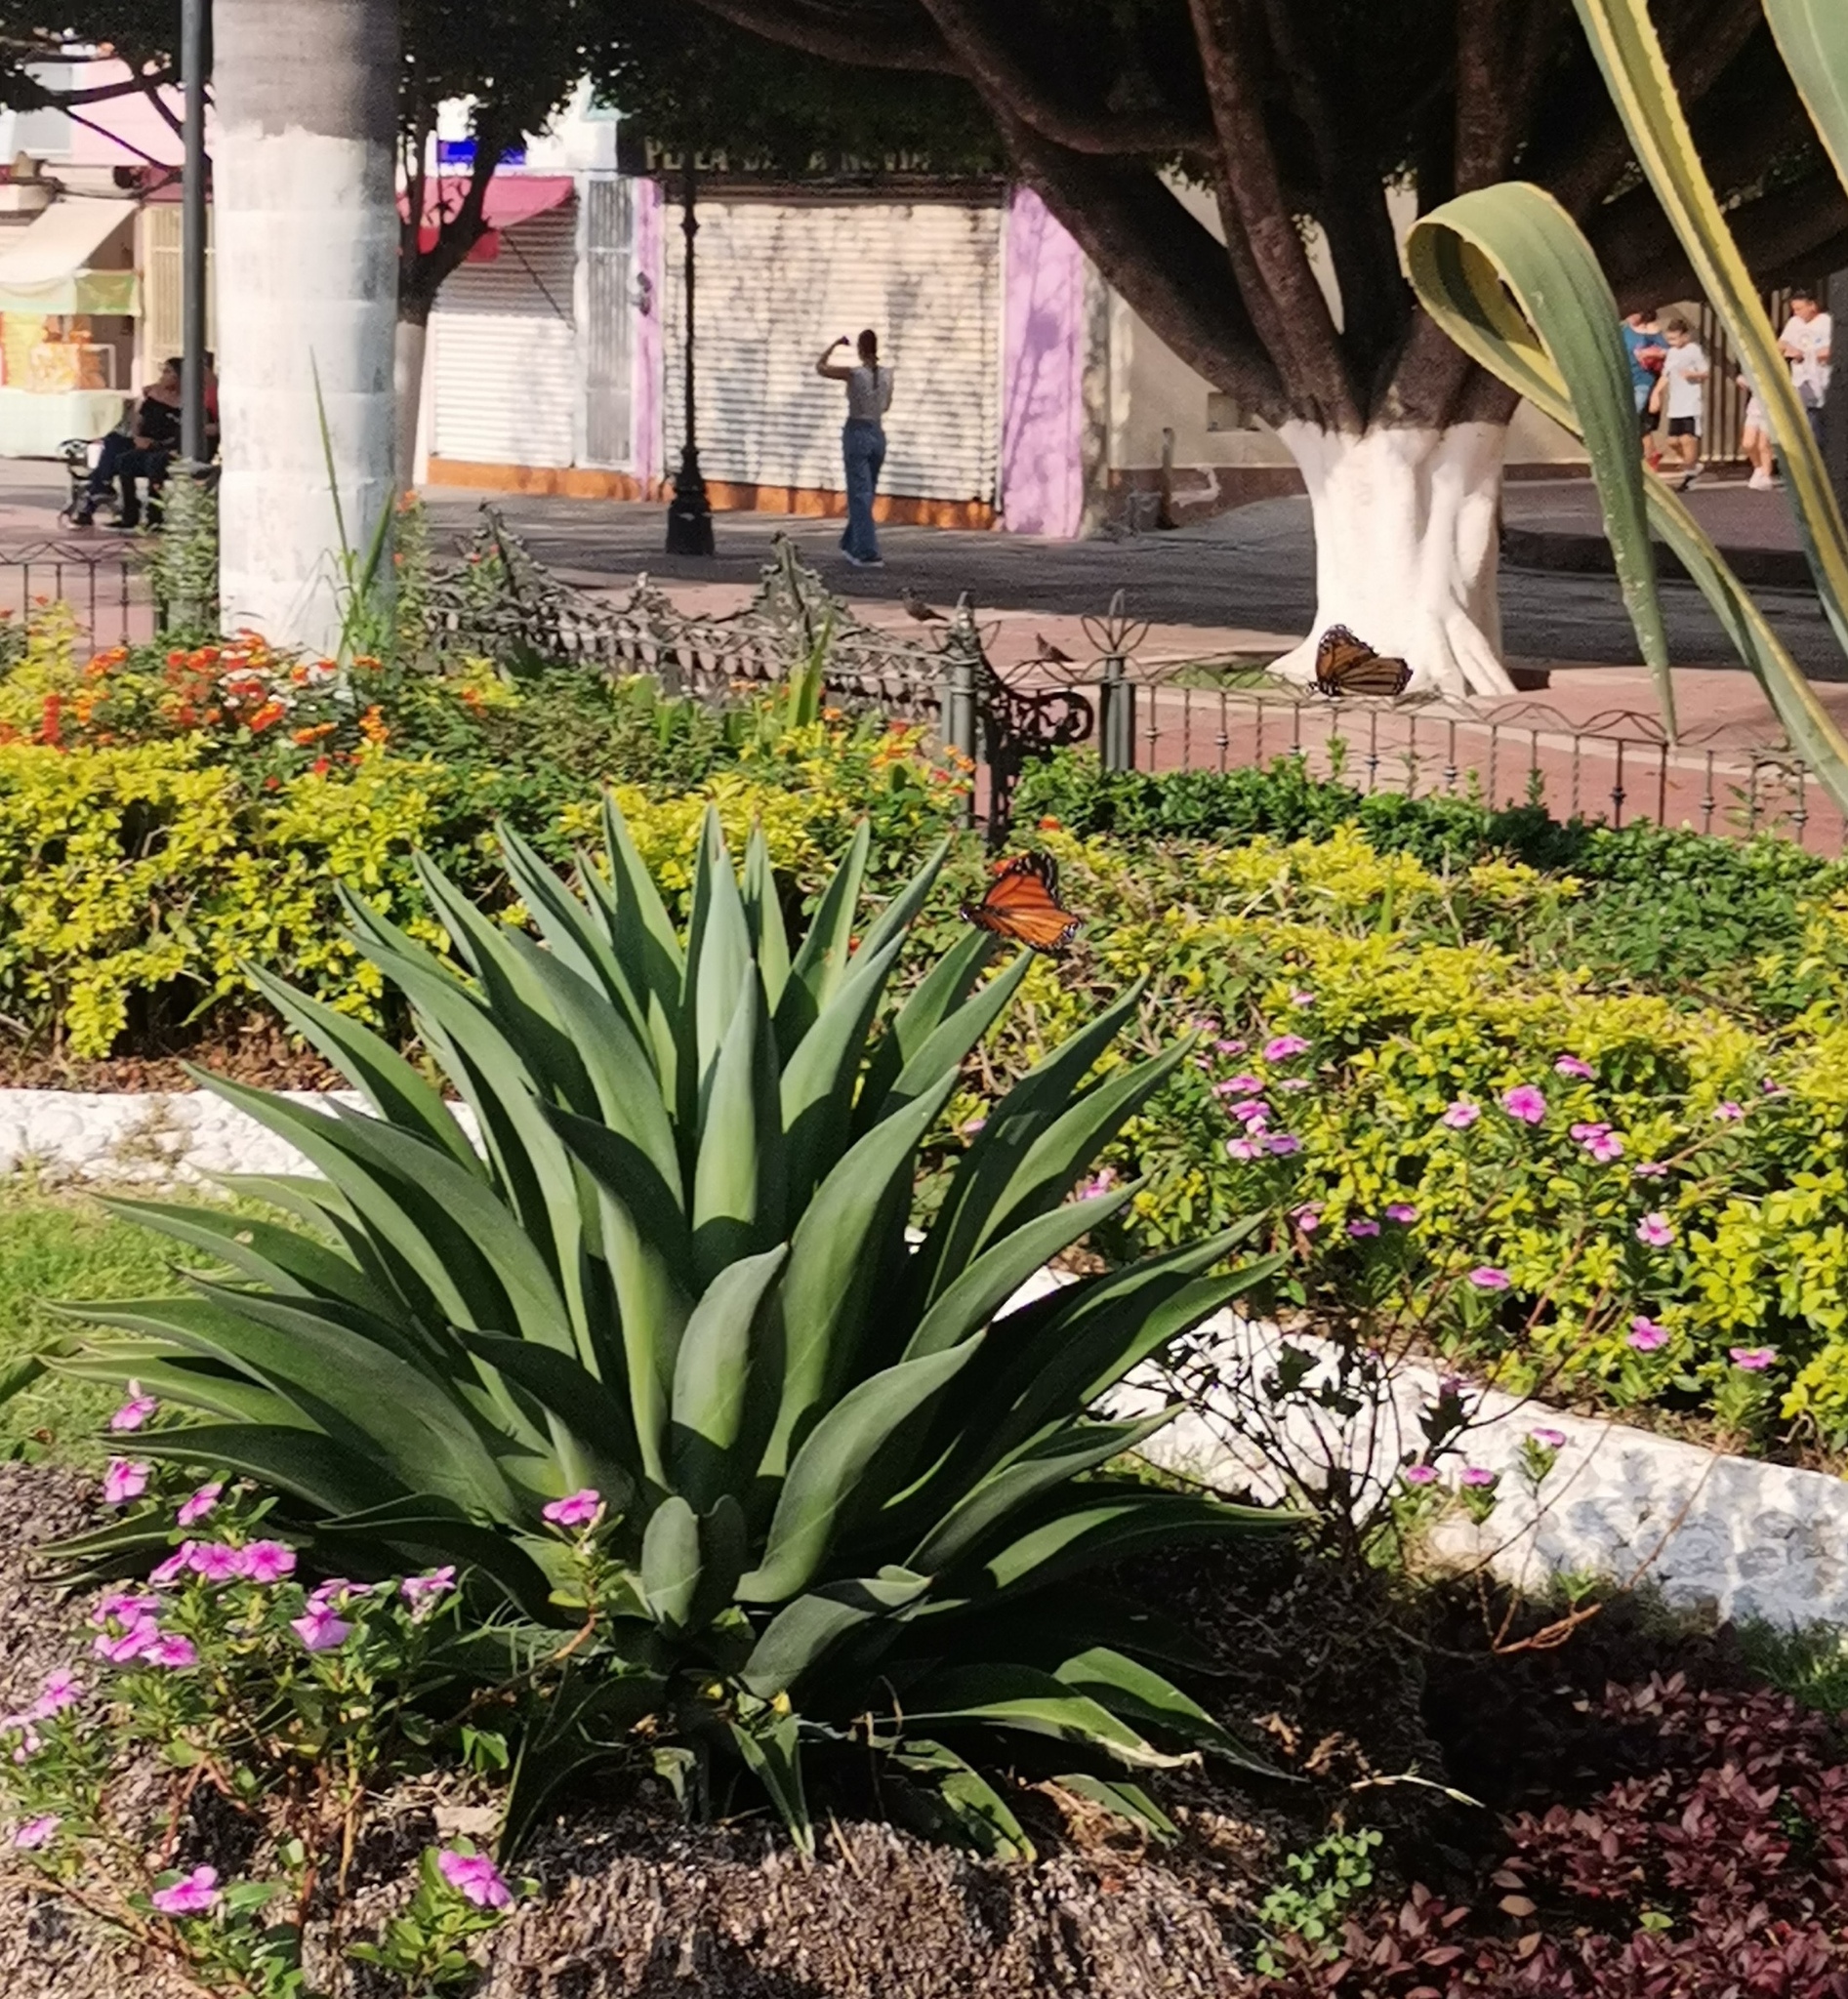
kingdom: Animalia
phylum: Arthropoda
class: Insecta
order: Lepidoptera
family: Nymphalidae
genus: Danaus
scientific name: Danaus plexippus
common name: Monarch
